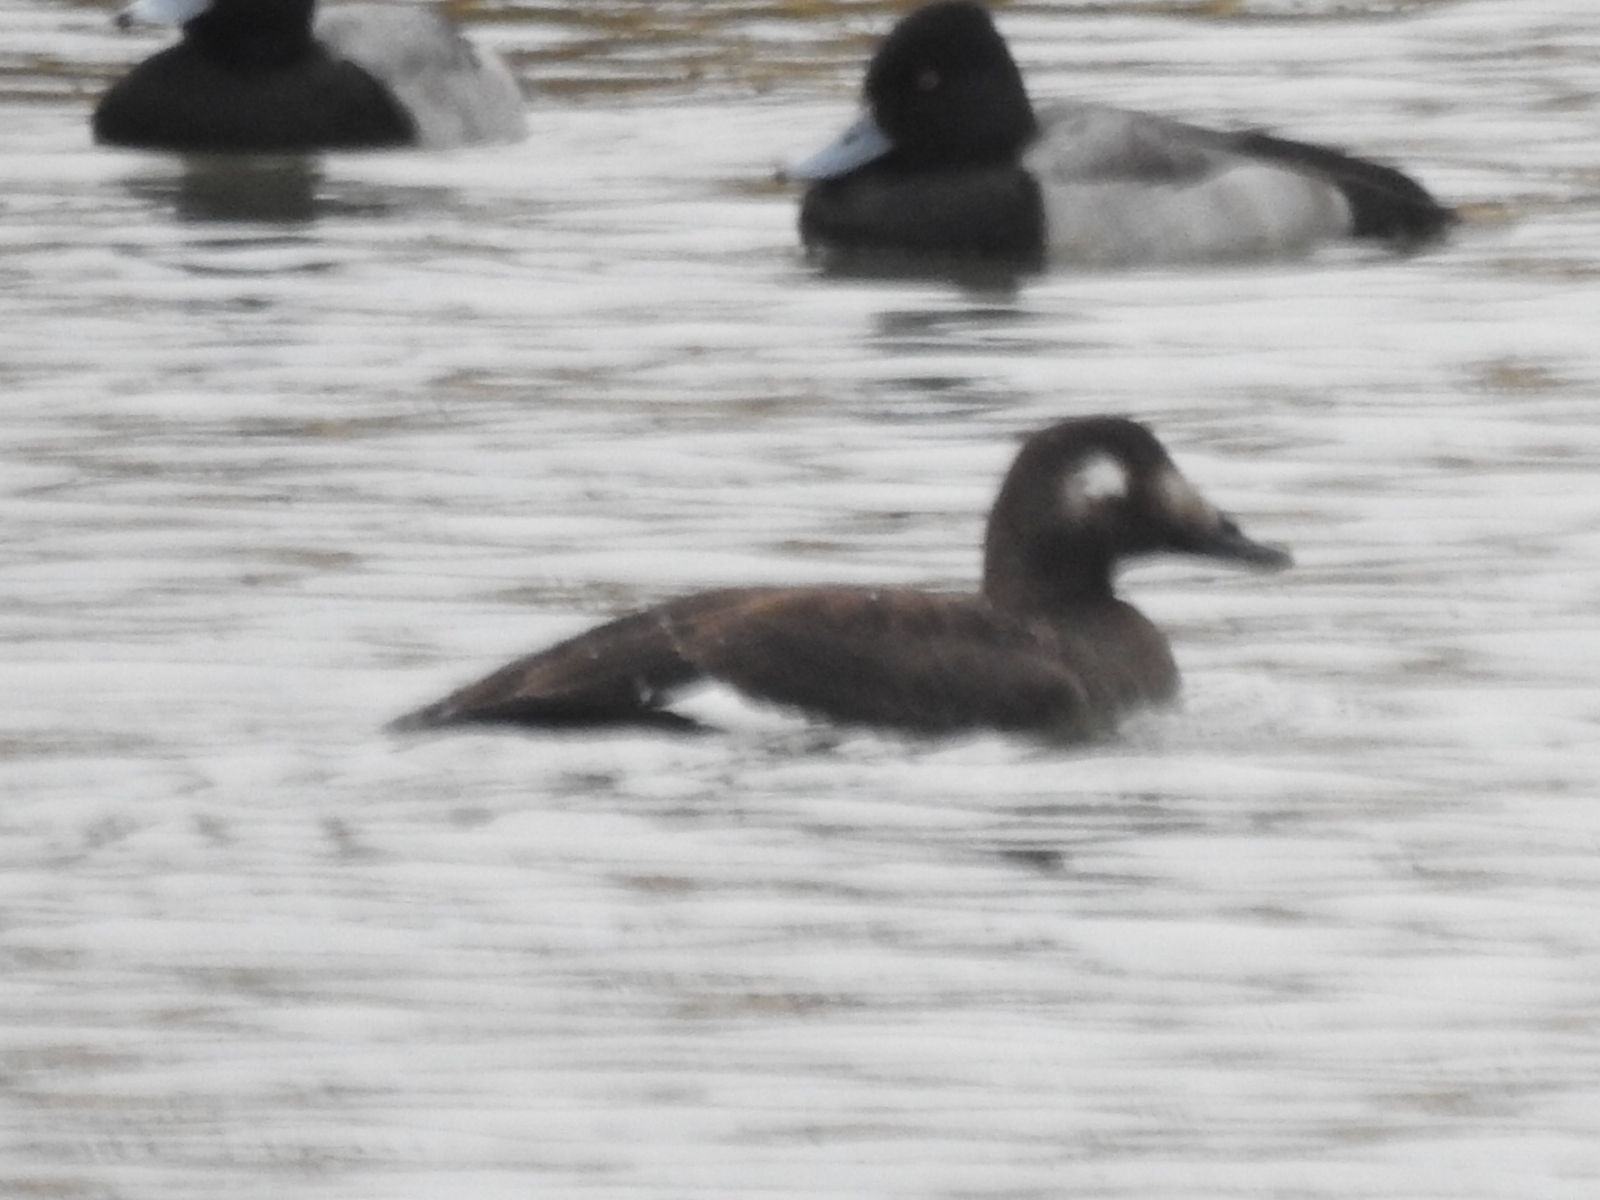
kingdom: Animalia
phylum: Chordata
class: Aves
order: Anseriformes
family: Anatidae
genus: Melanitta
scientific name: Melanitta deglandi
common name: White-winged scoter
